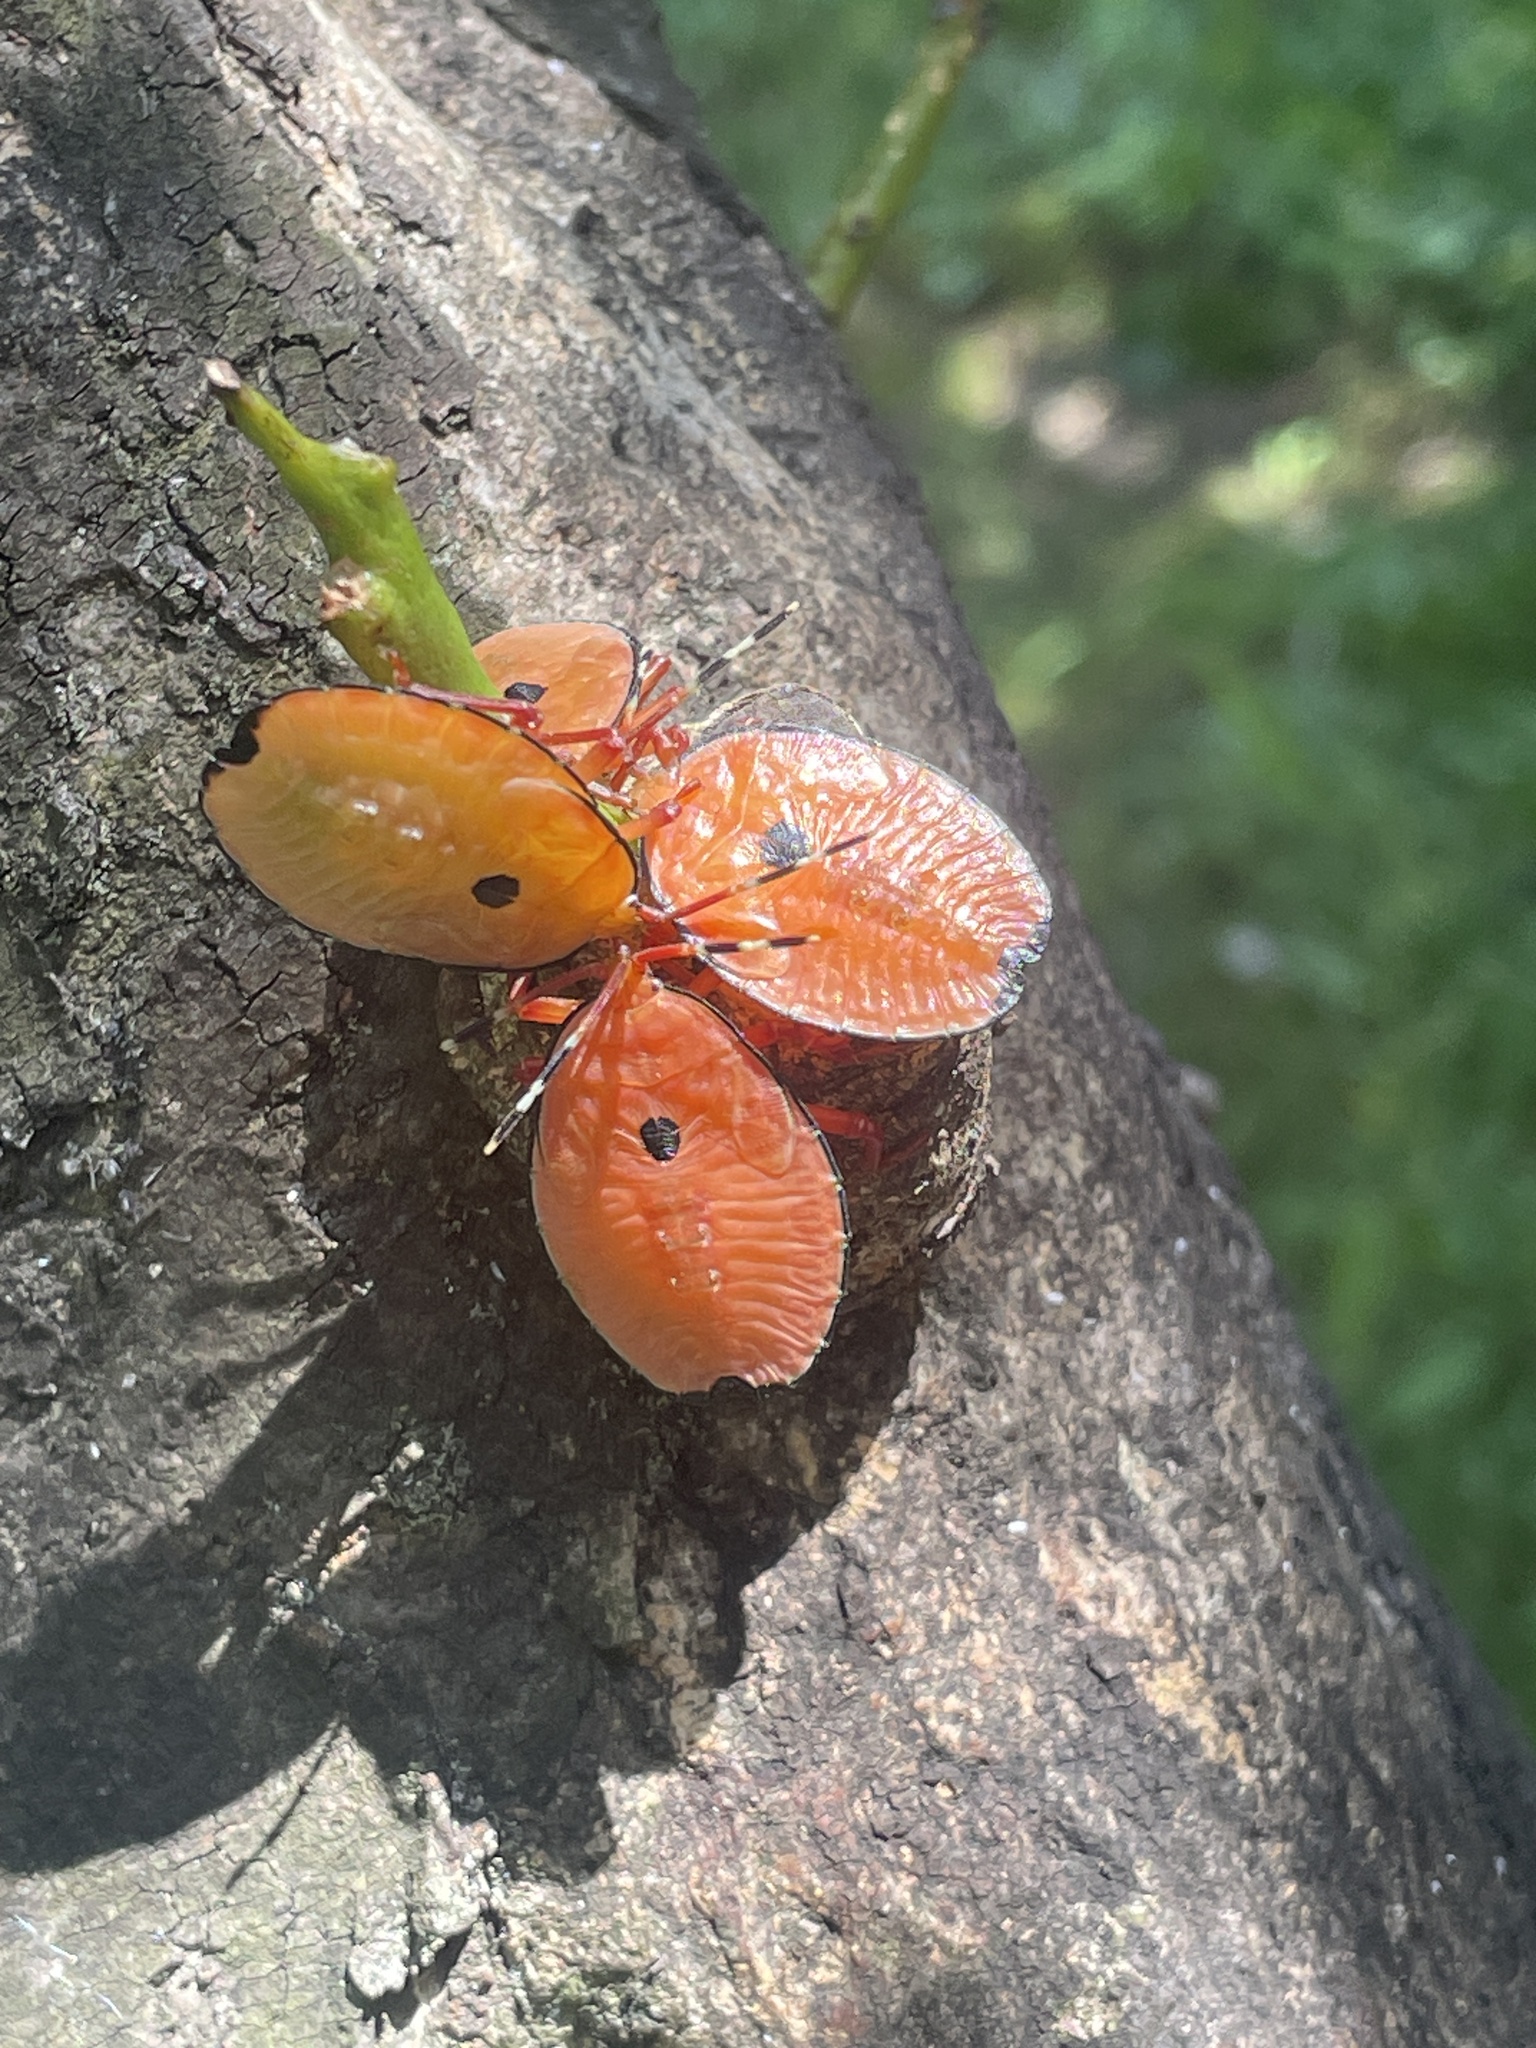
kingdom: Animalia
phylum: Arthropoda
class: Insecta
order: Hemiptera
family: Tessaratomidae
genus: Musgraveia
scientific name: Musgraveia sulciventris
